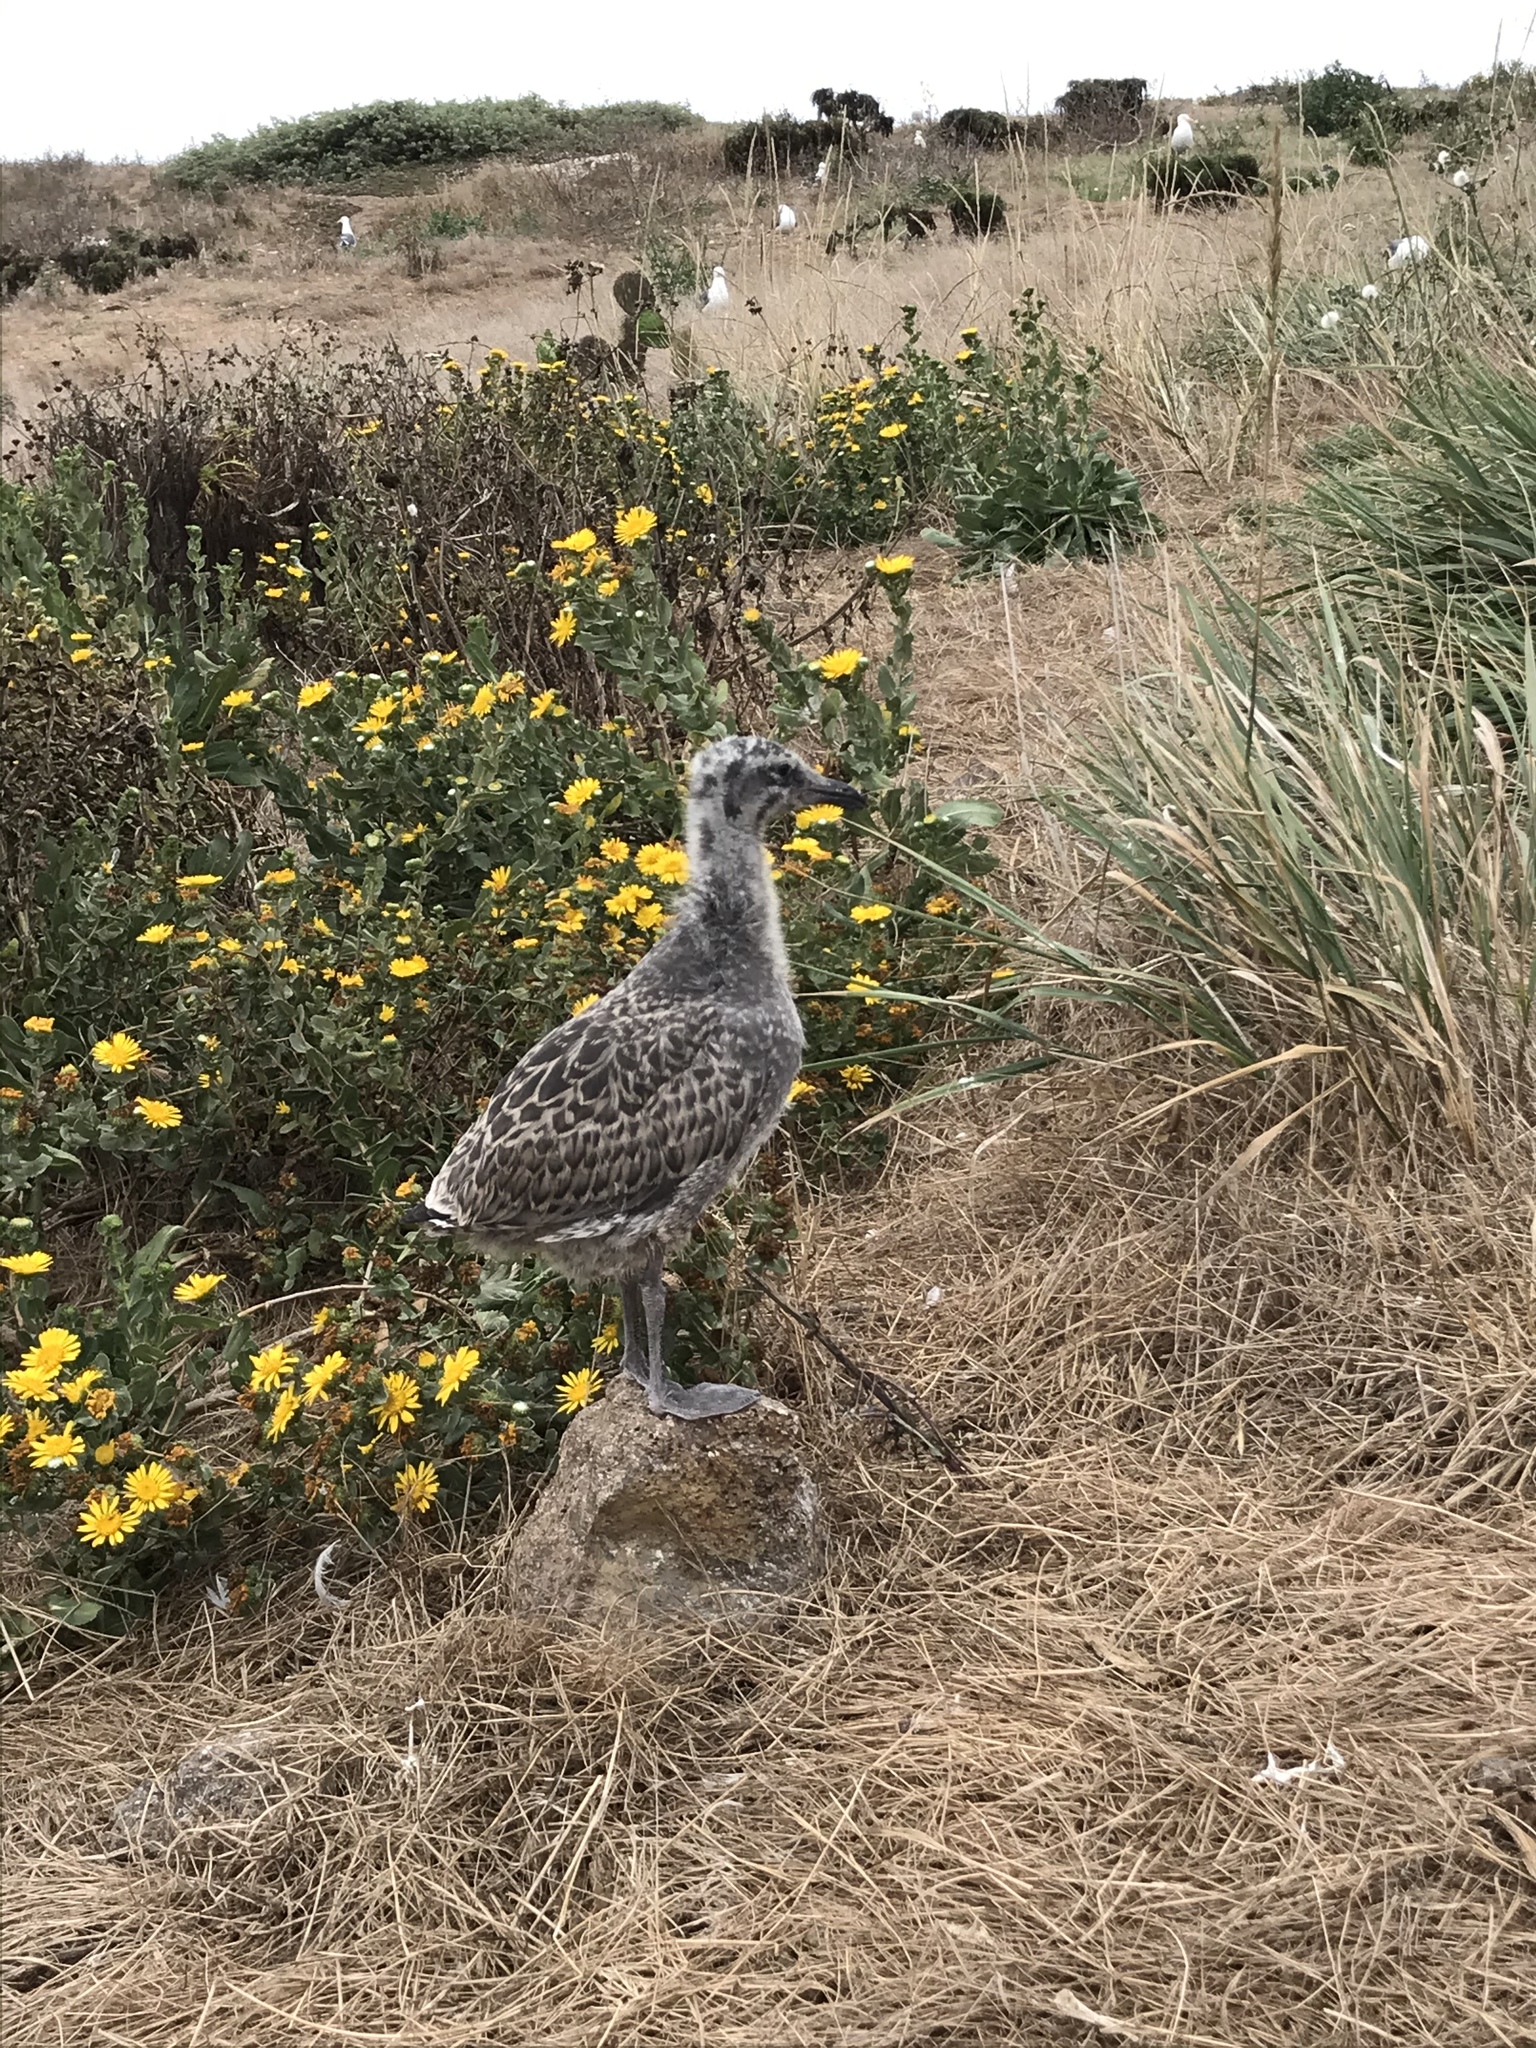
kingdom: Animalia
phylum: Chordata
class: Aves
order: Charadriiformes
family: Laridae
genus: Larus
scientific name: Larus occidentalis
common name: Western gull
